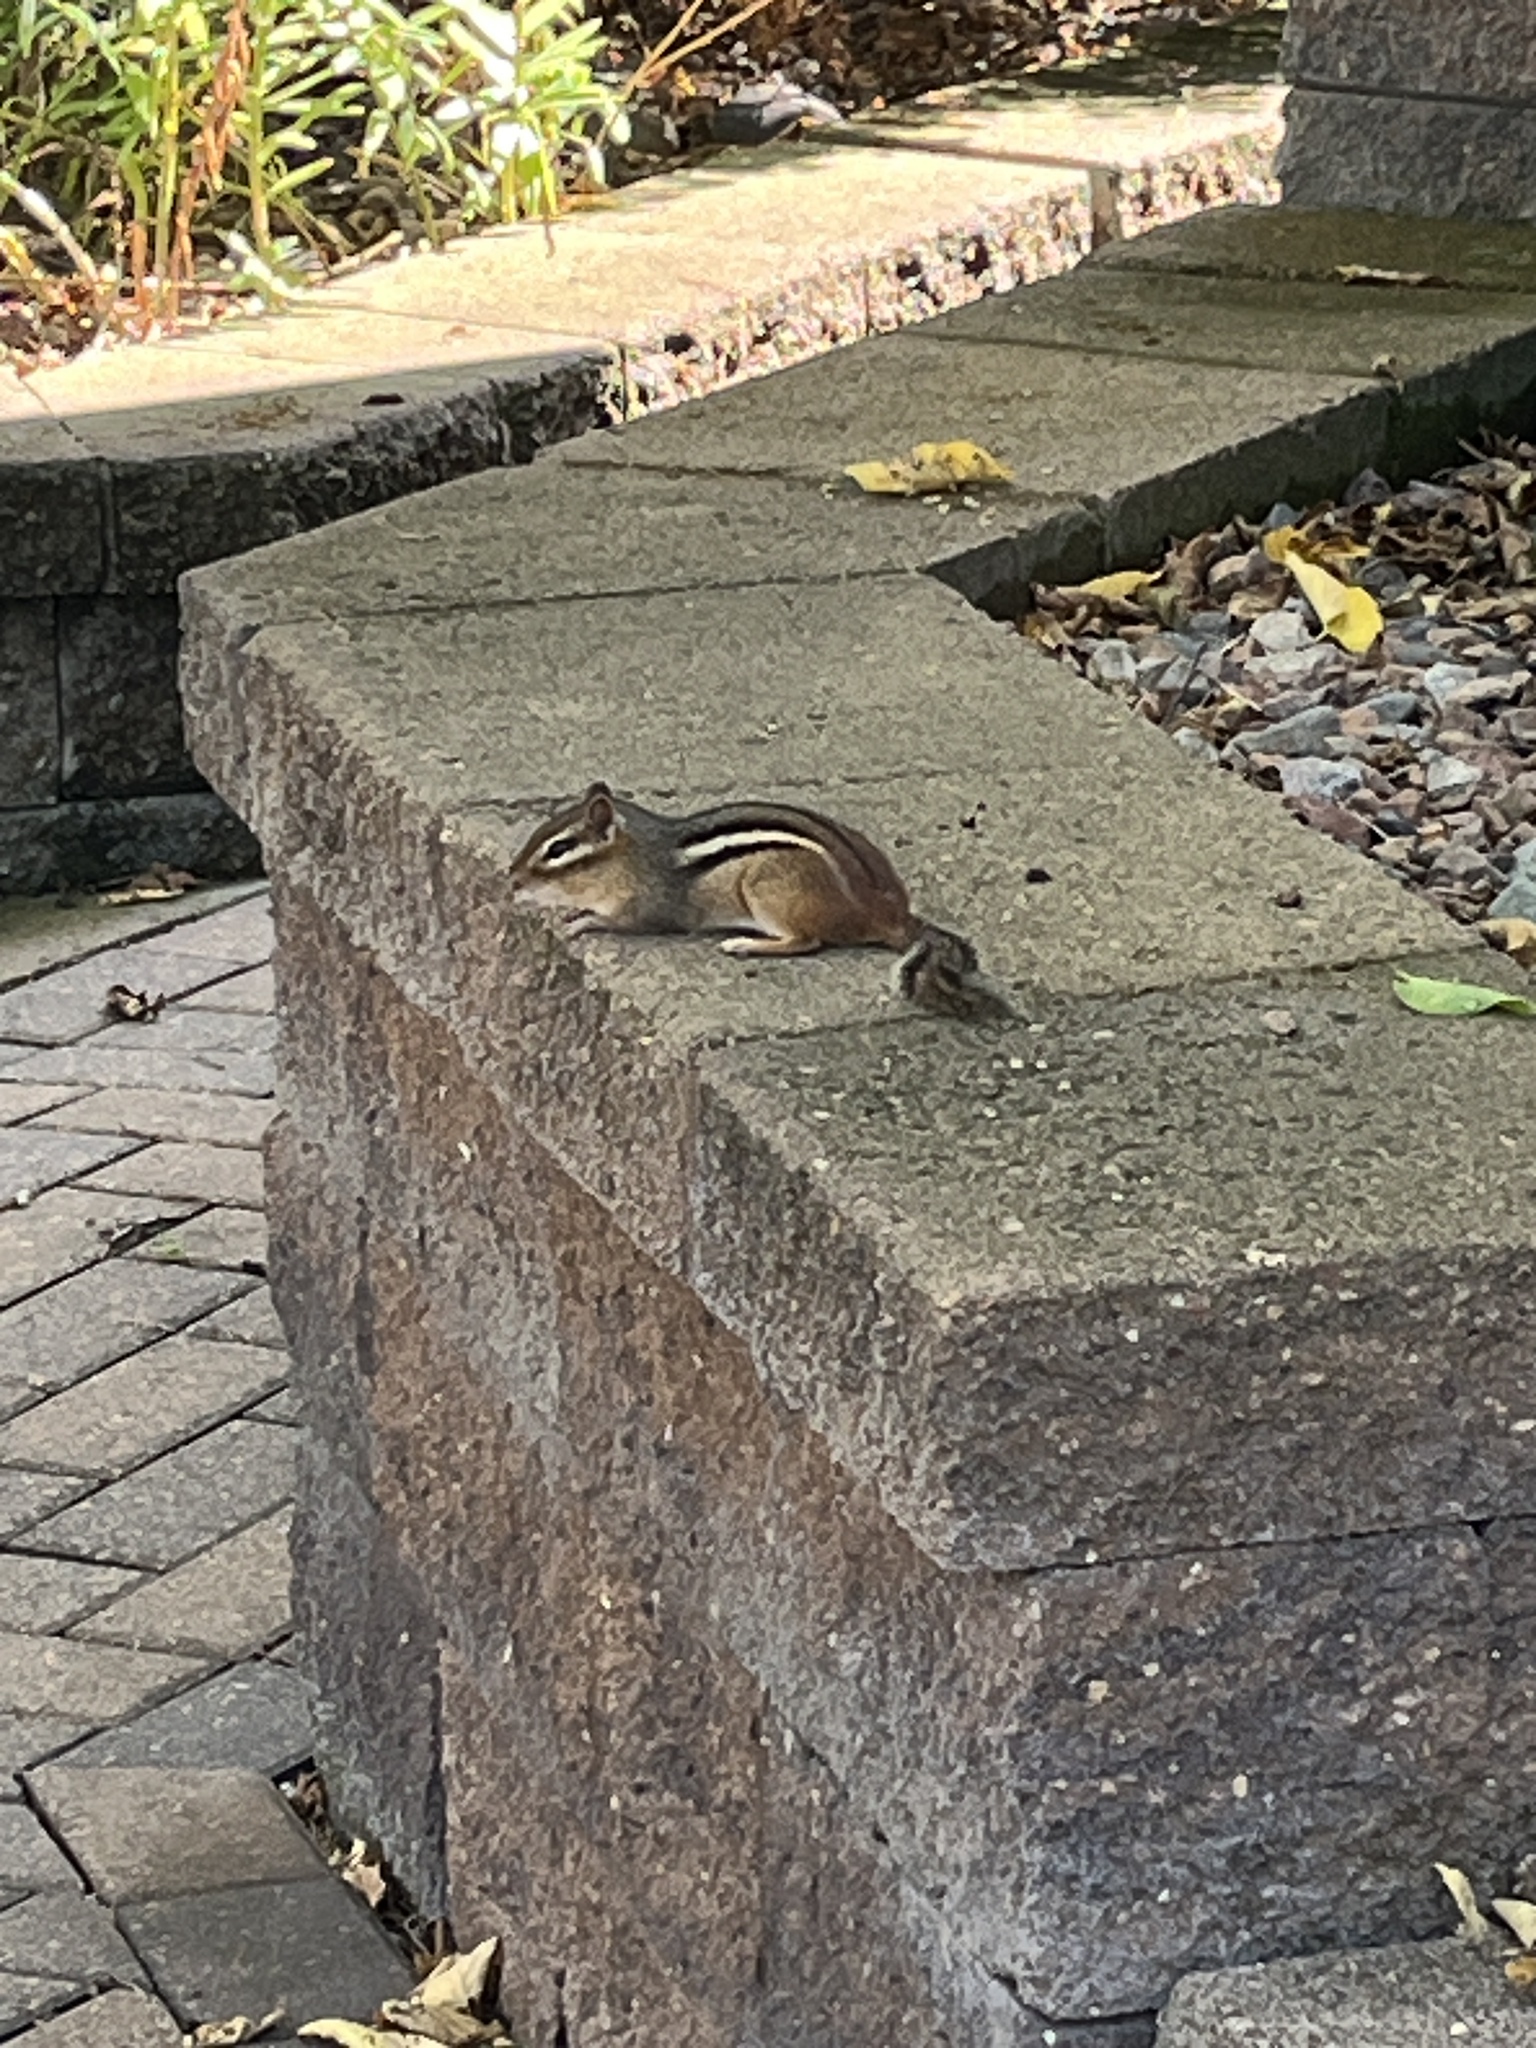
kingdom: Animalia
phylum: Chordata
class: Mammalia
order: Rodentia
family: Sciuridae
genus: Tamias
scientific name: Tamias striatus
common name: Eastern chipmunk
